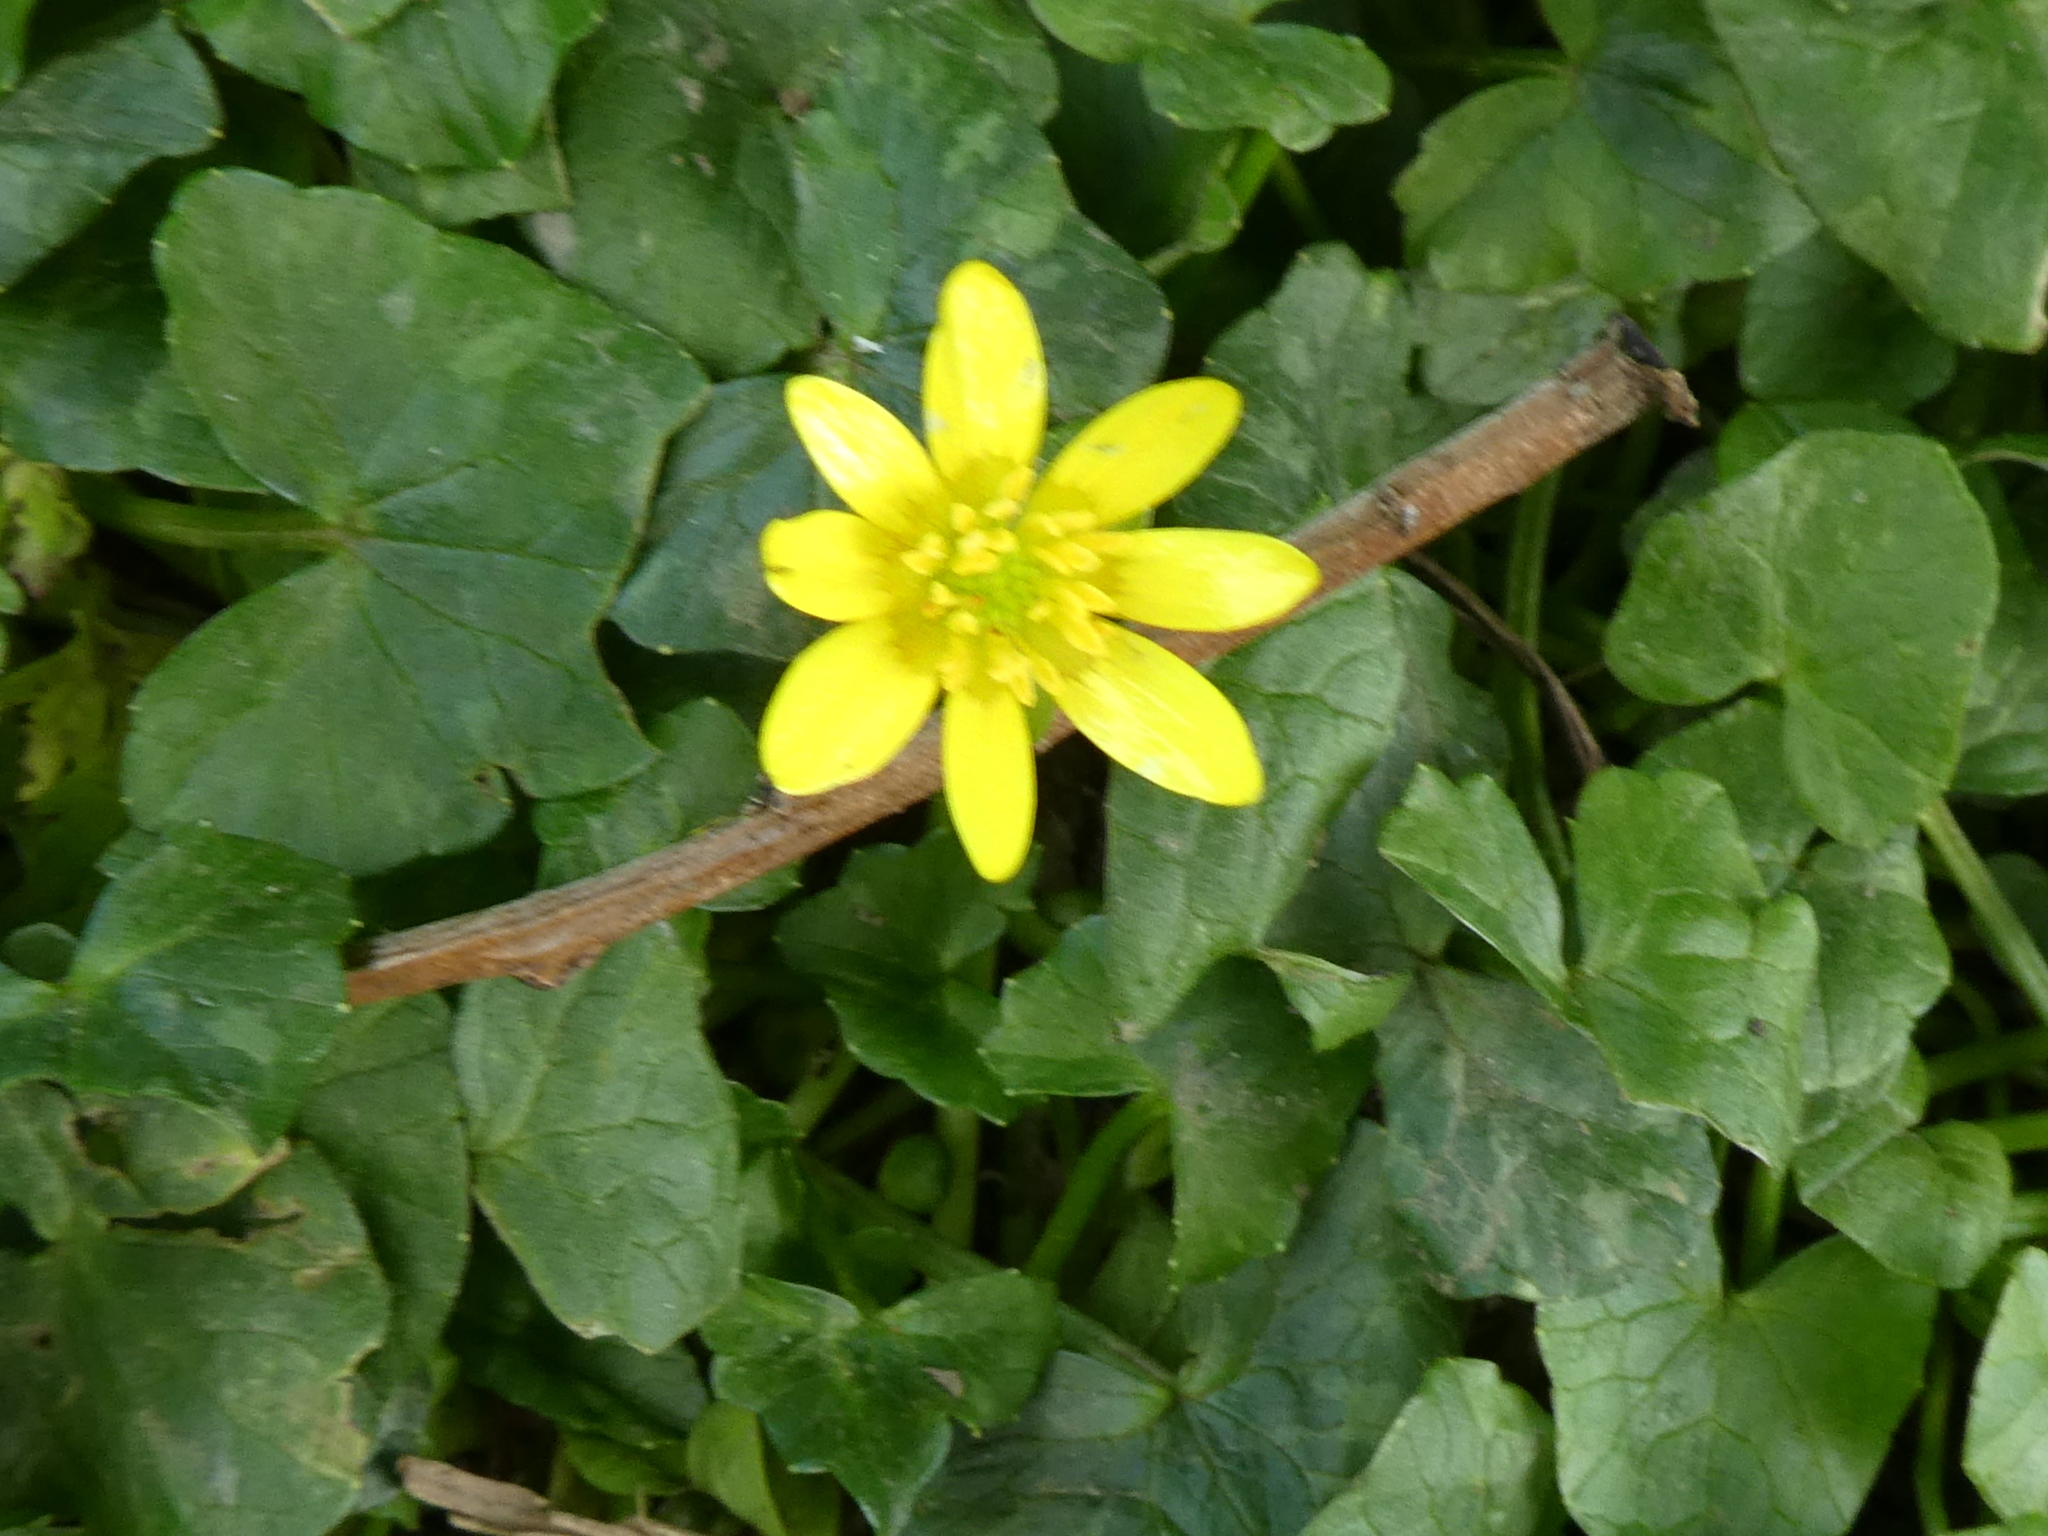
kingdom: Plantae
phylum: Tracheophyta
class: Magnoliopsida
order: Ranunculales
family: Ranunculaceae
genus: Ficaria
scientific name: Ficaria verna
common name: Lesser celandine
